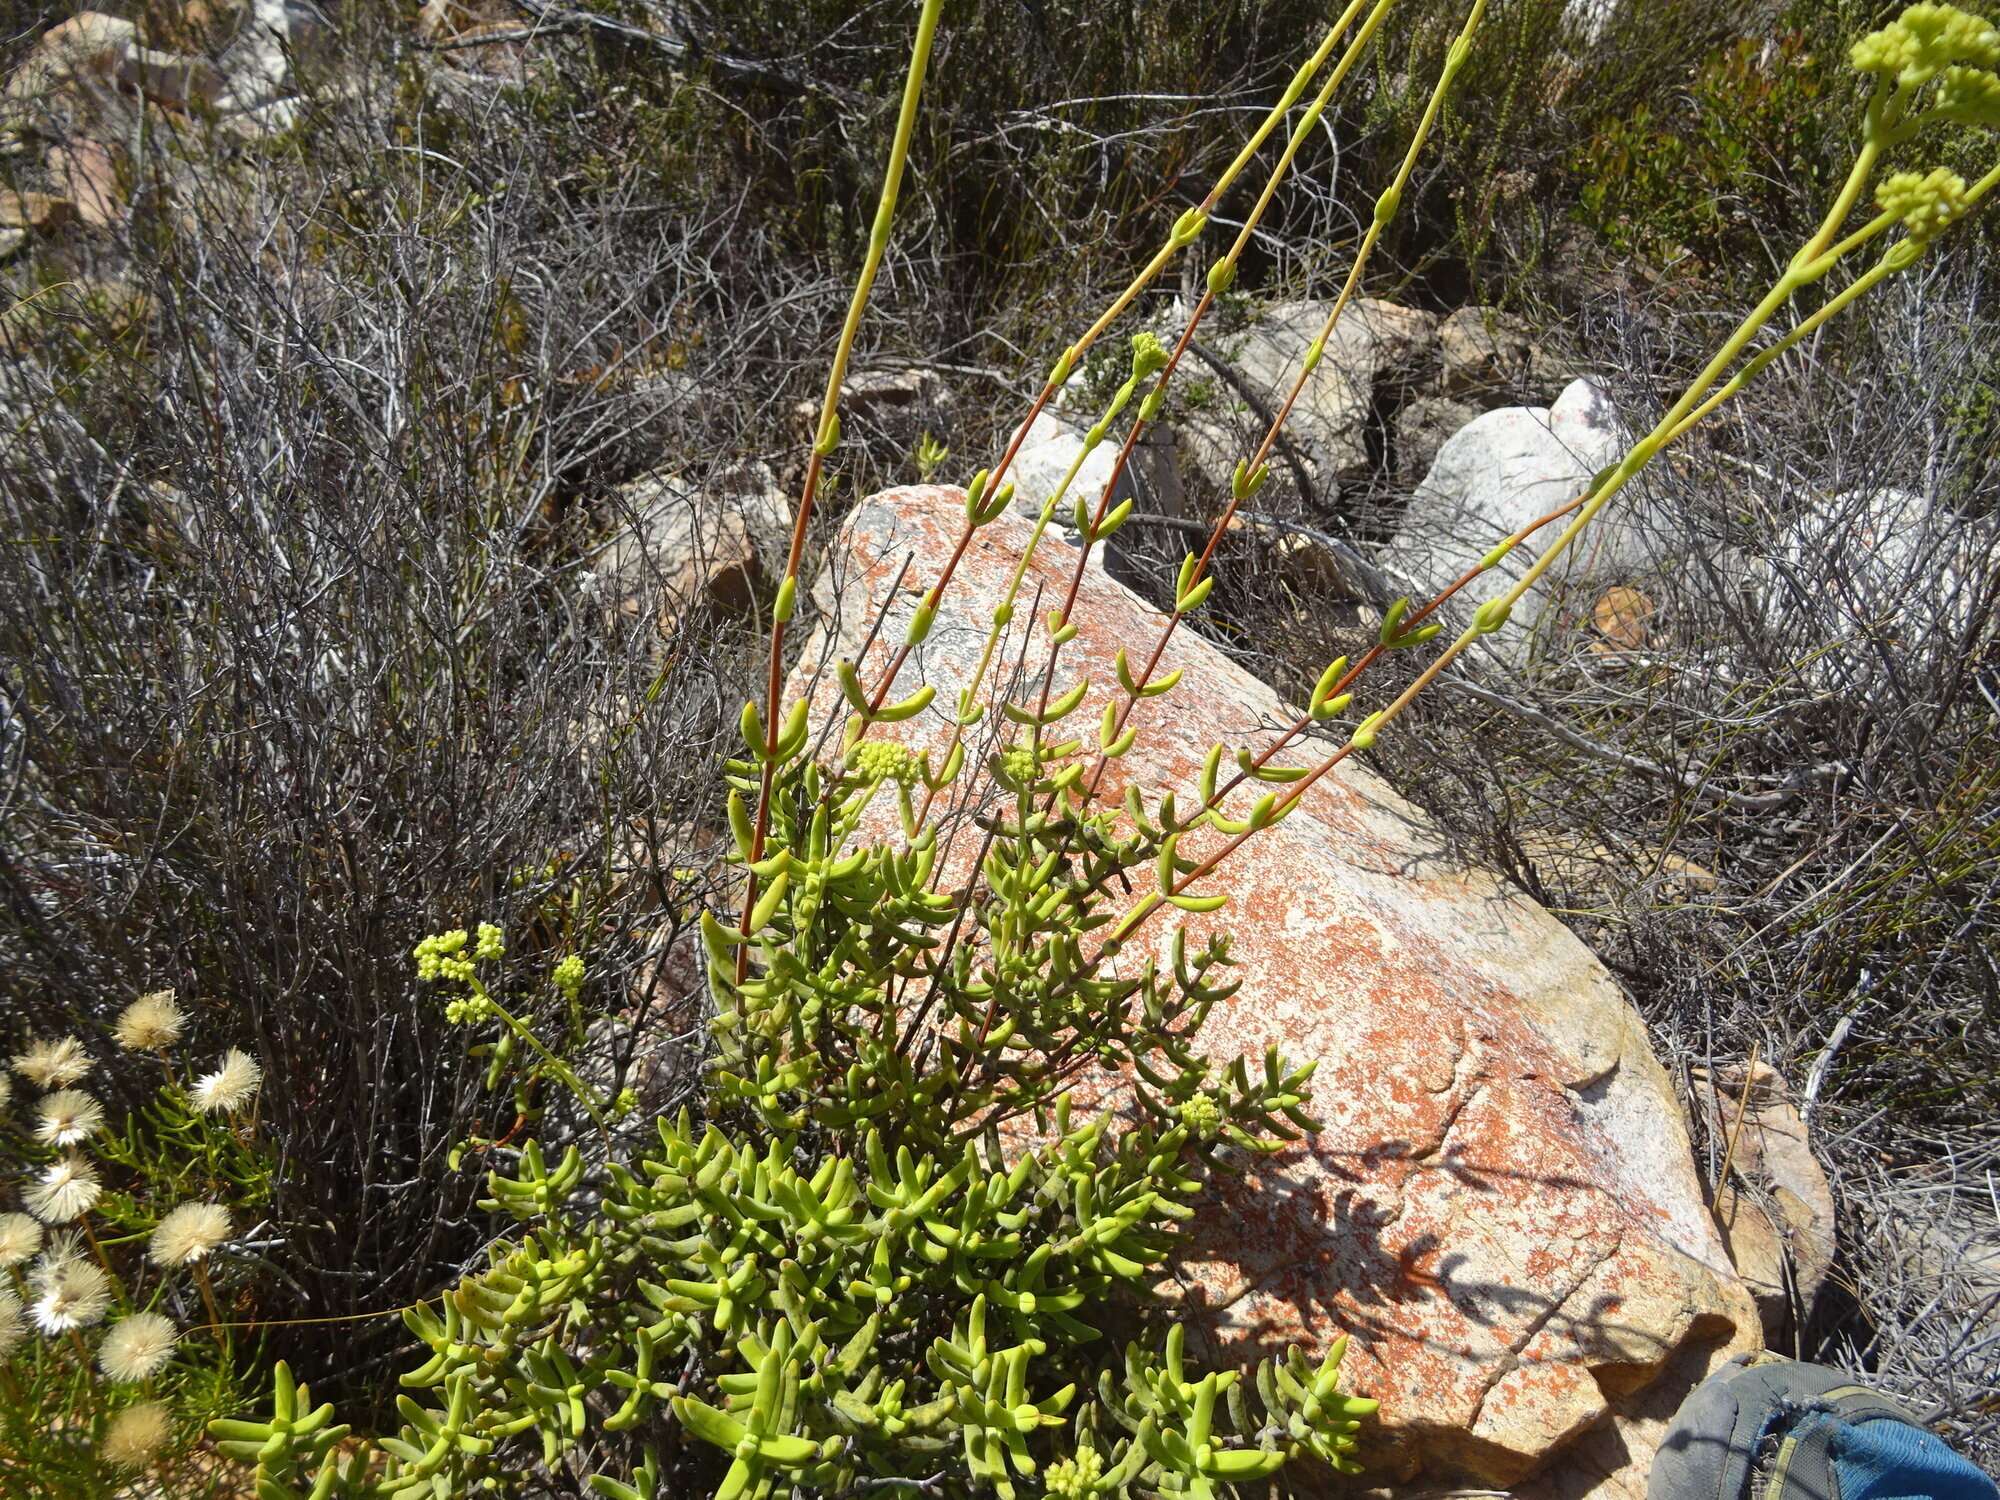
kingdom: Plantae
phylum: Tracheophyta
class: Magnoliopsida
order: Saxifragales
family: Crassulaceae
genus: Crassula
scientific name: Crassula mollis
